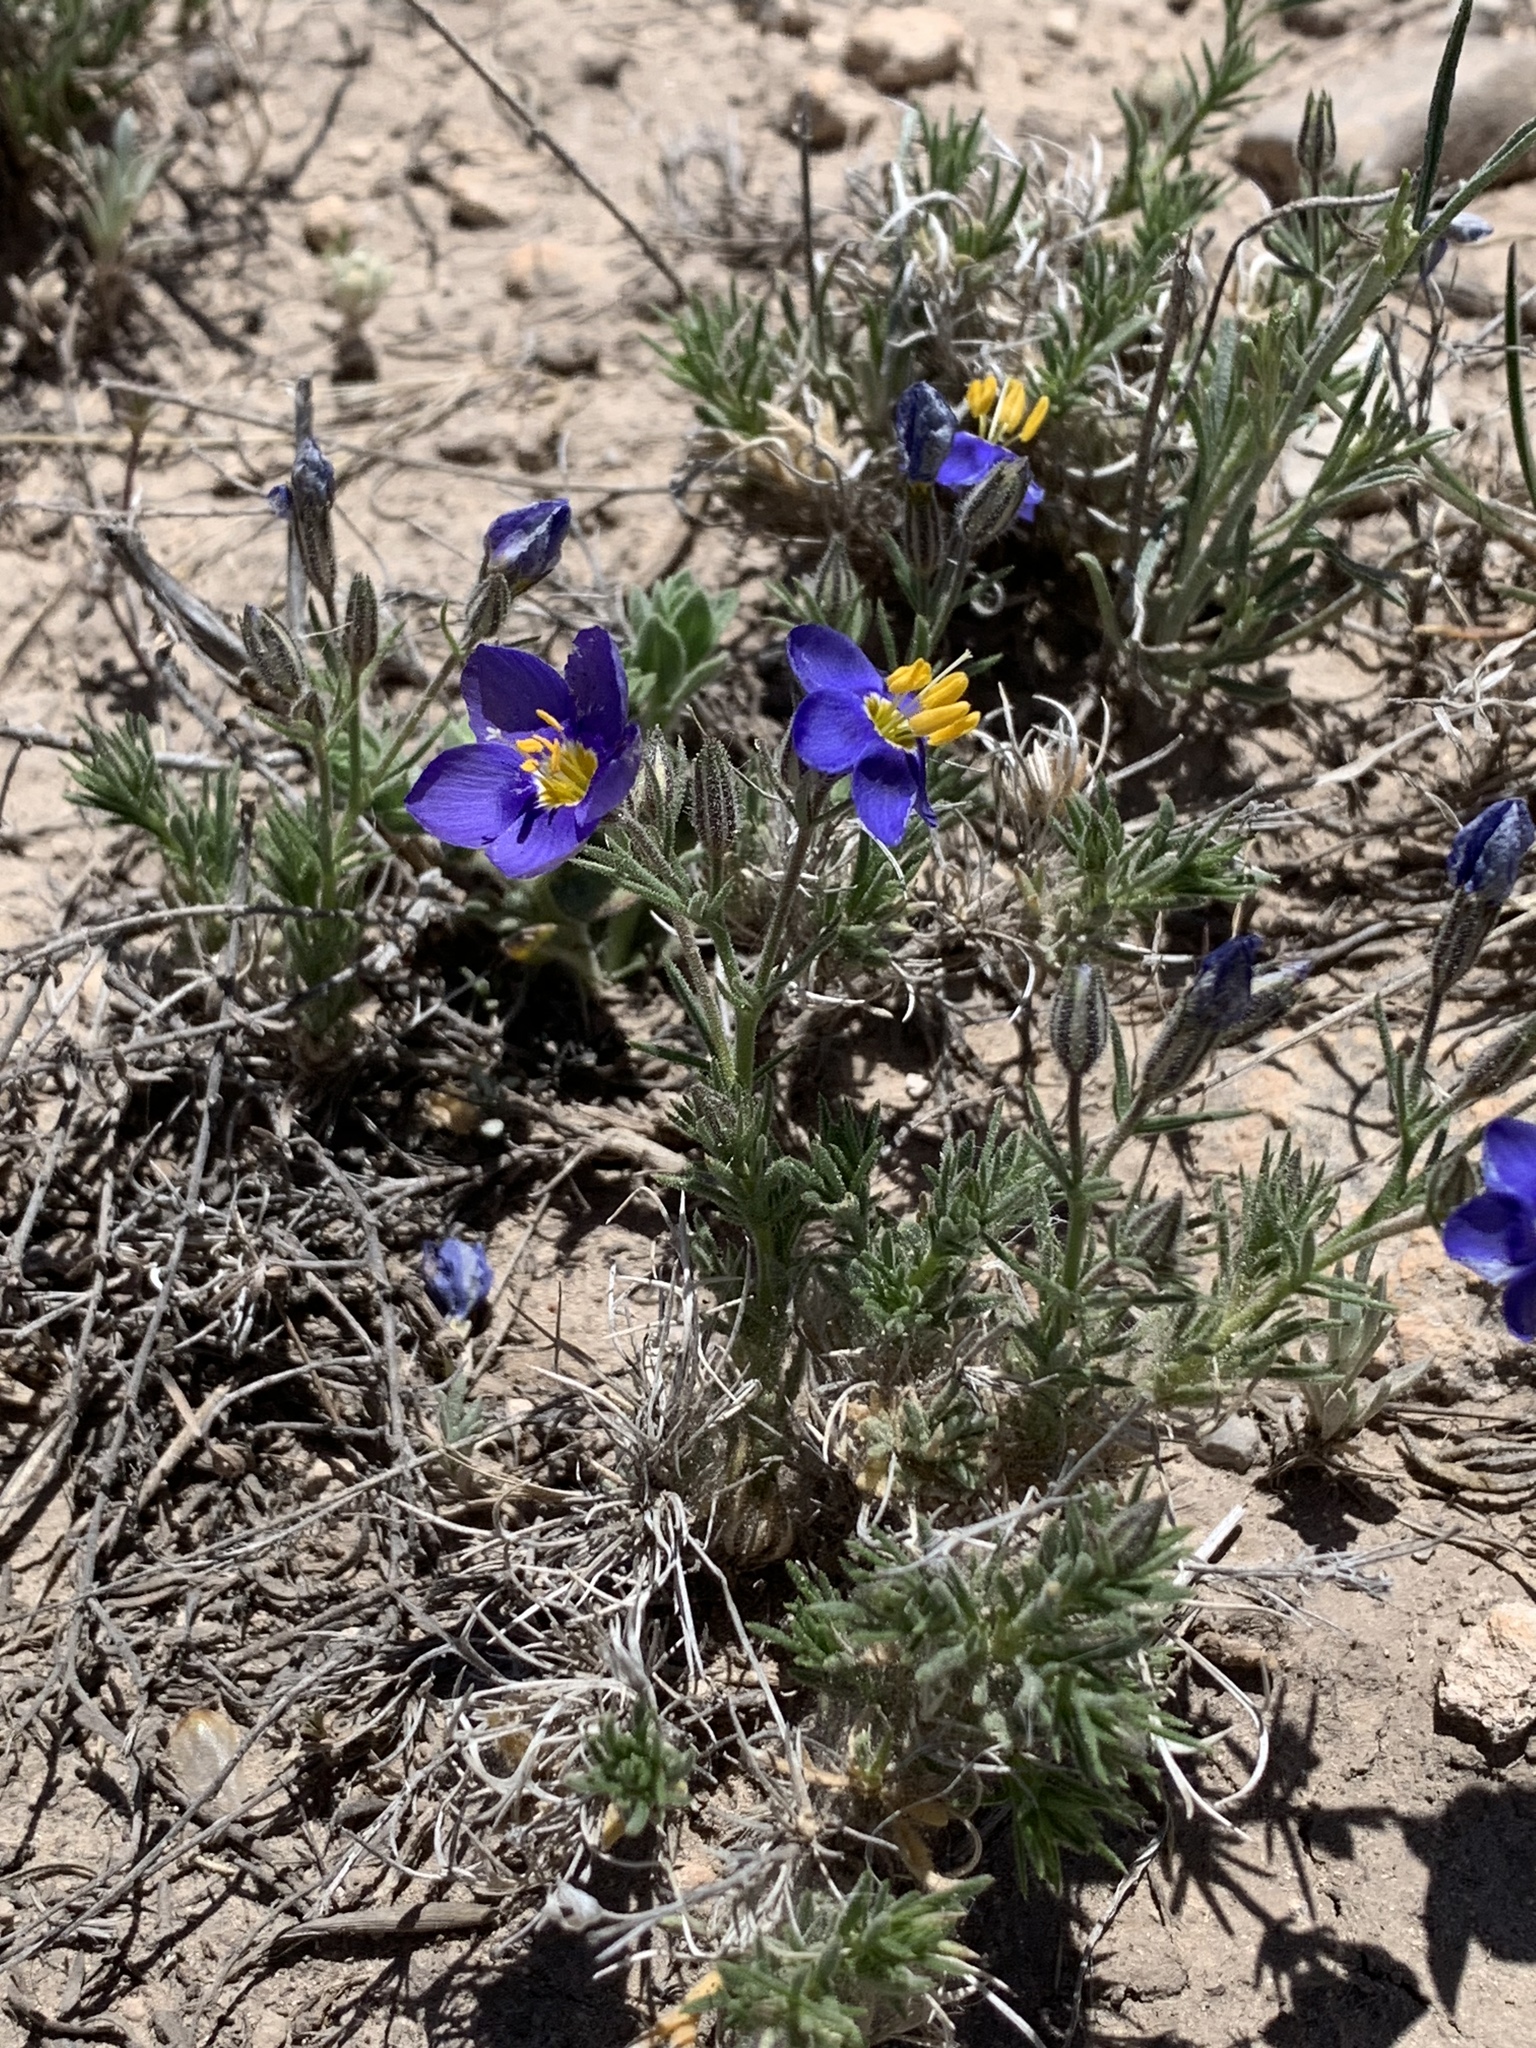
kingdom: Plantae
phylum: Tracheophyta
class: Magnoliopsida
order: Ericales
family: Polemoniaceae
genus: Giliastrum
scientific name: Giliastrum acerosum
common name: Bluebowls
